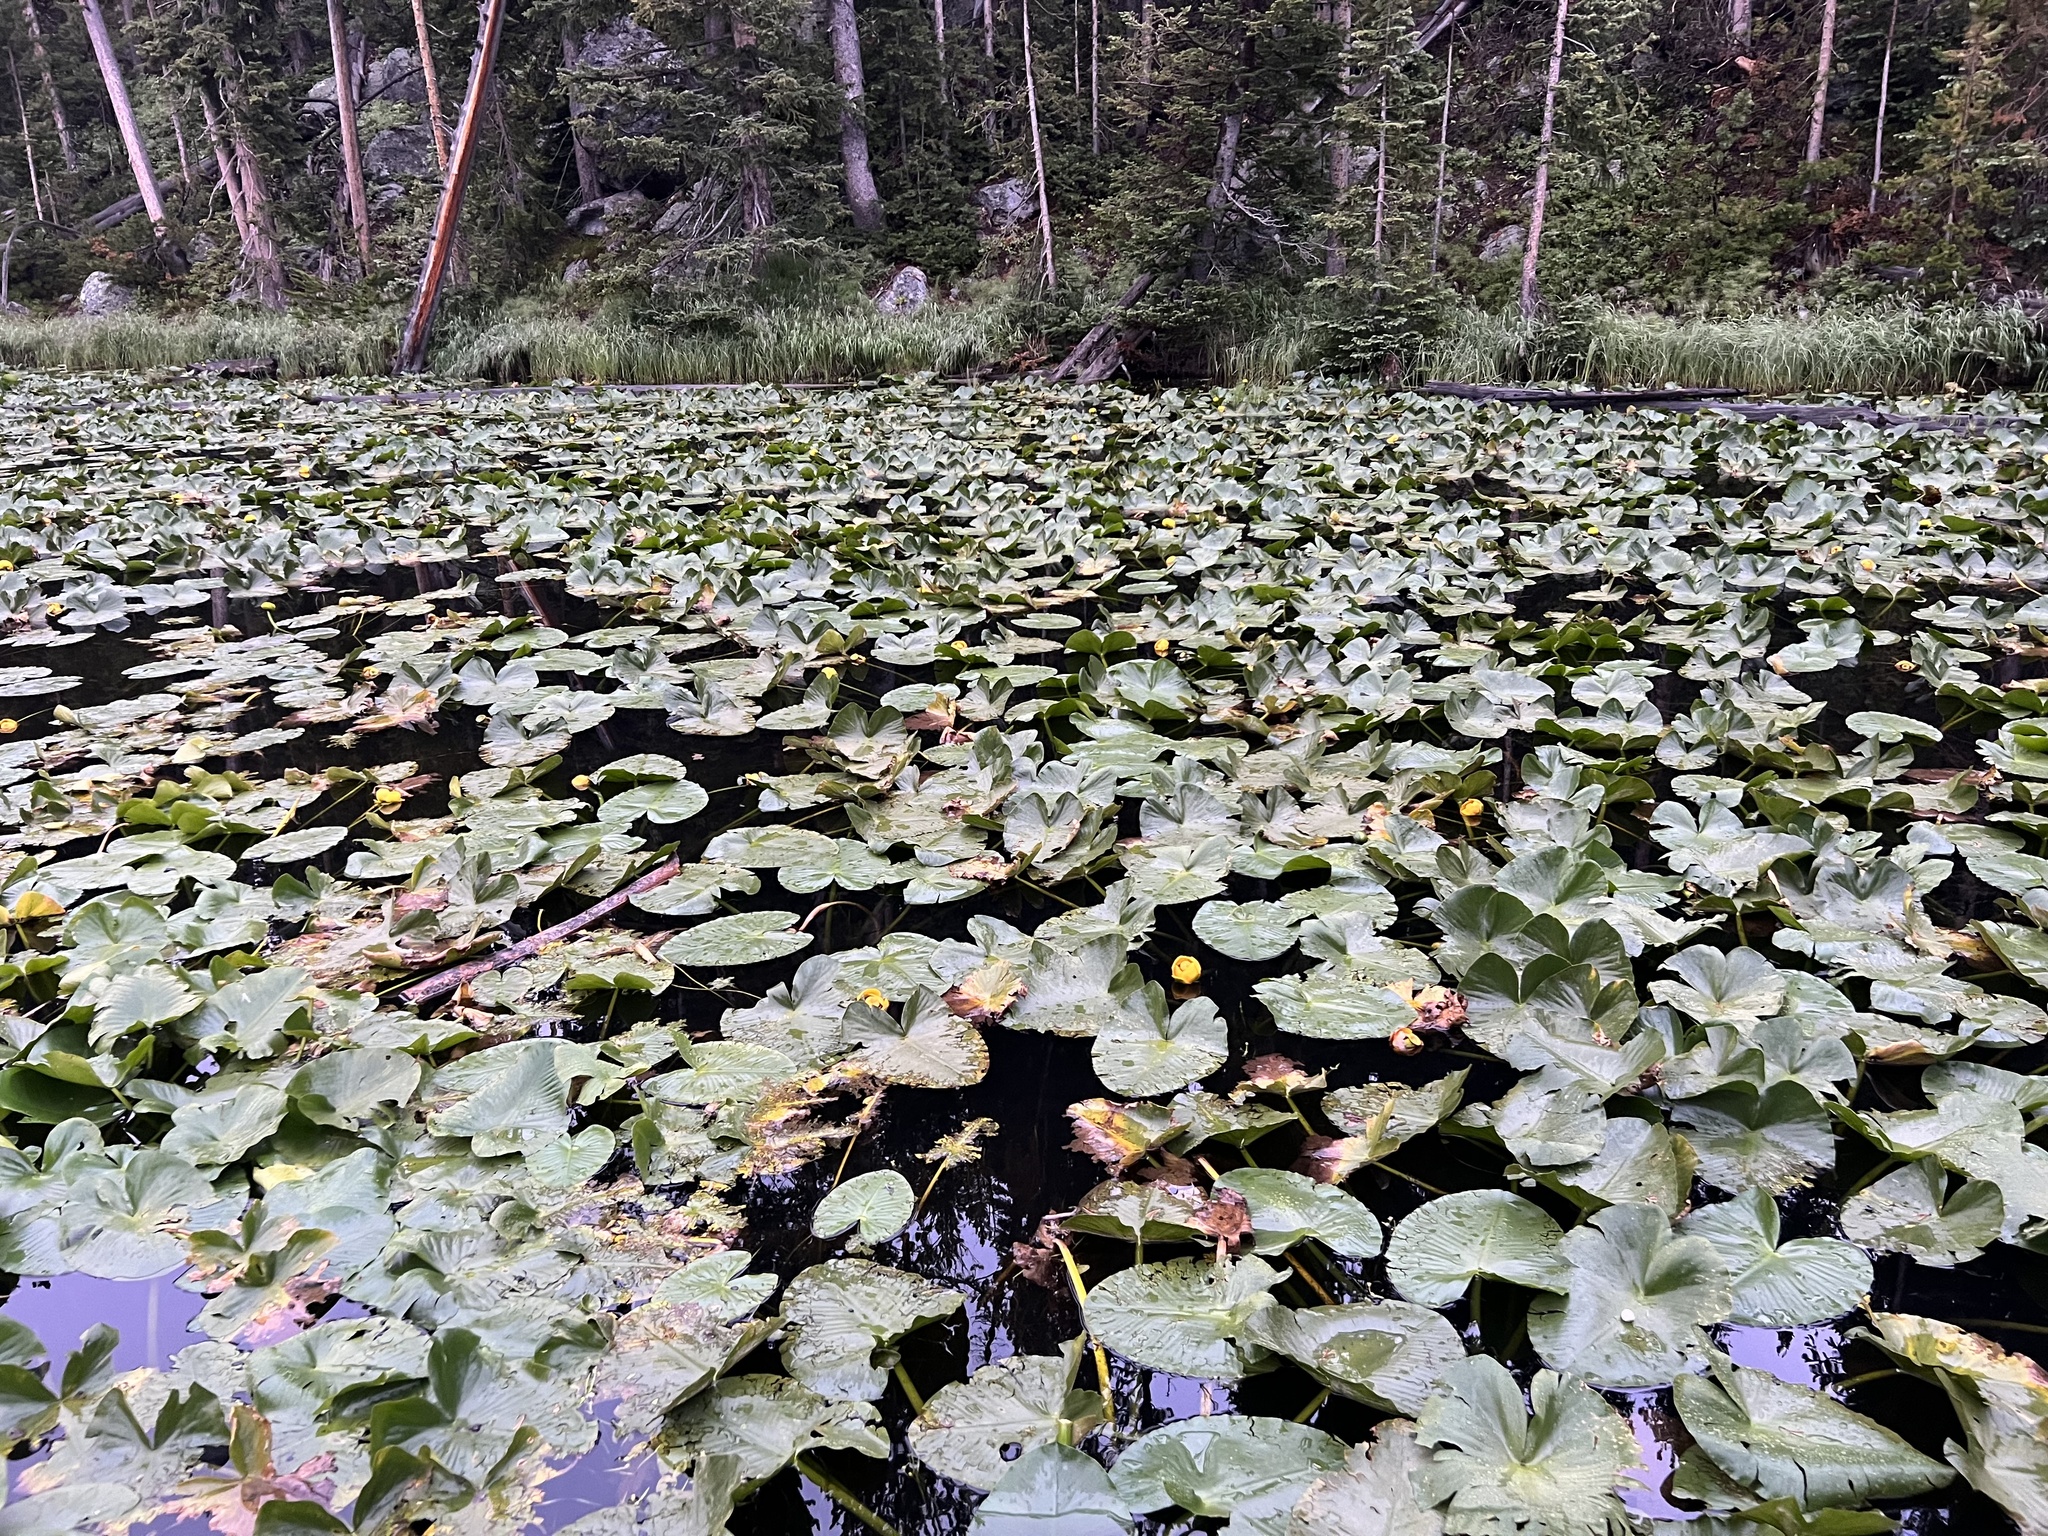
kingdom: Plantae
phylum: Tracheophyta
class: Magnoliopsida
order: Nymphaeales
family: Nymphaeaceae
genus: Nuphar
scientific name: Nuphar polysepala
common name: Rocky mountain cow-lily
